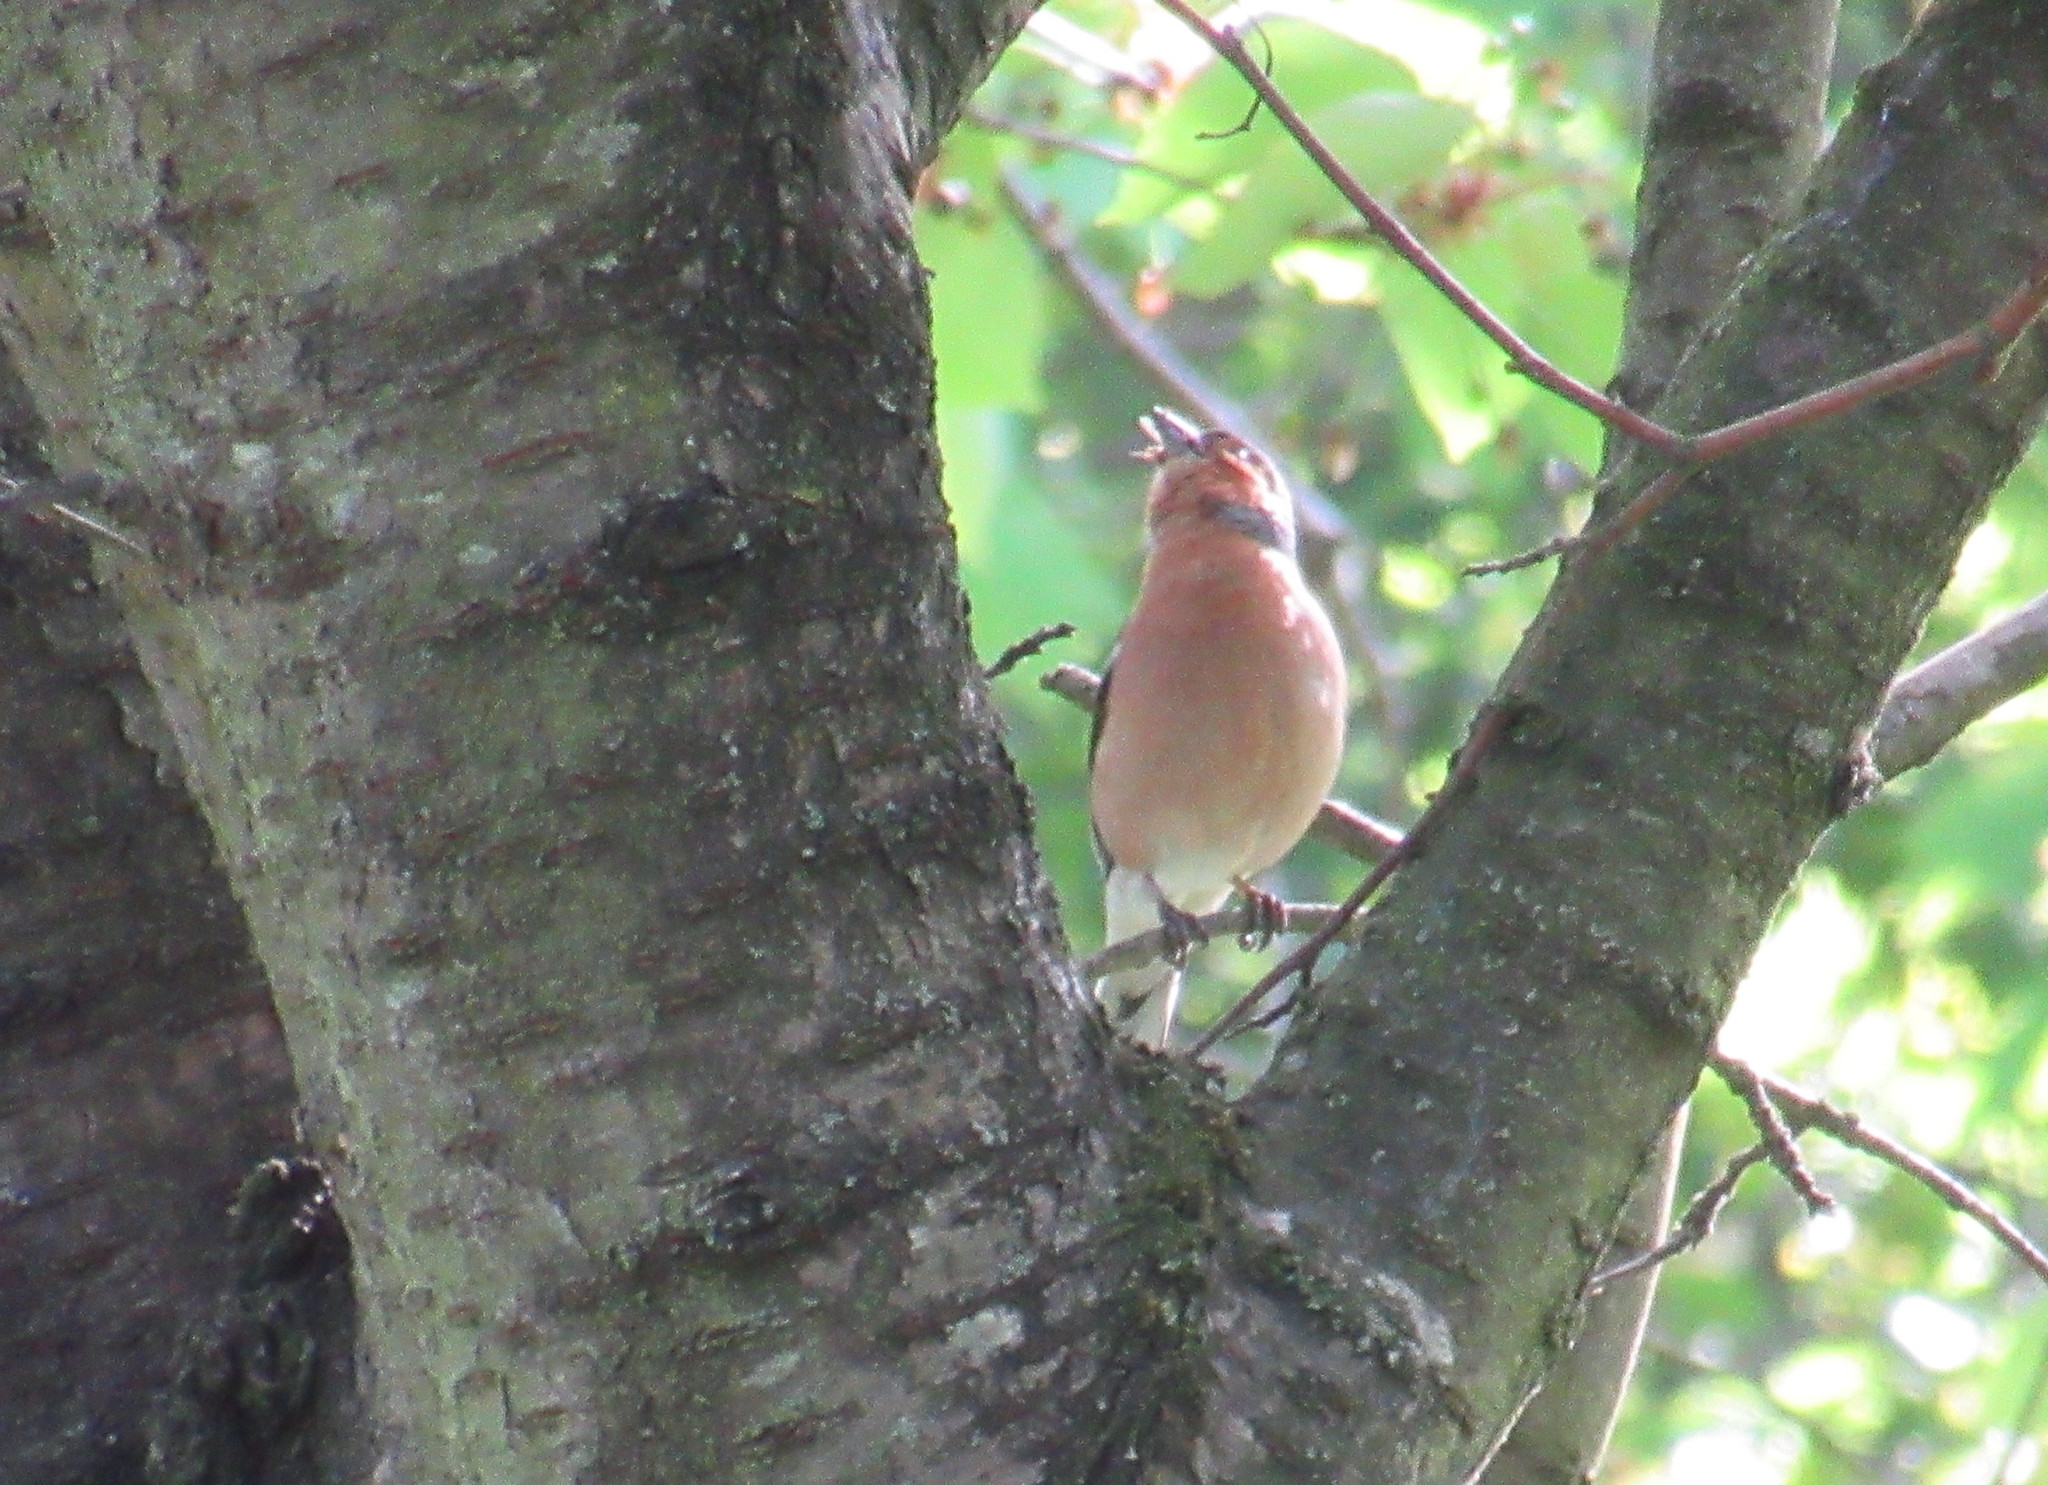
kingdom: Animalia
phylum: Chordata
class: Aves
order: Passeriformes
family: Fringillidae
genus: Fringilla
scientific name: Fringilla coelebs
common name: Common chaffinch
